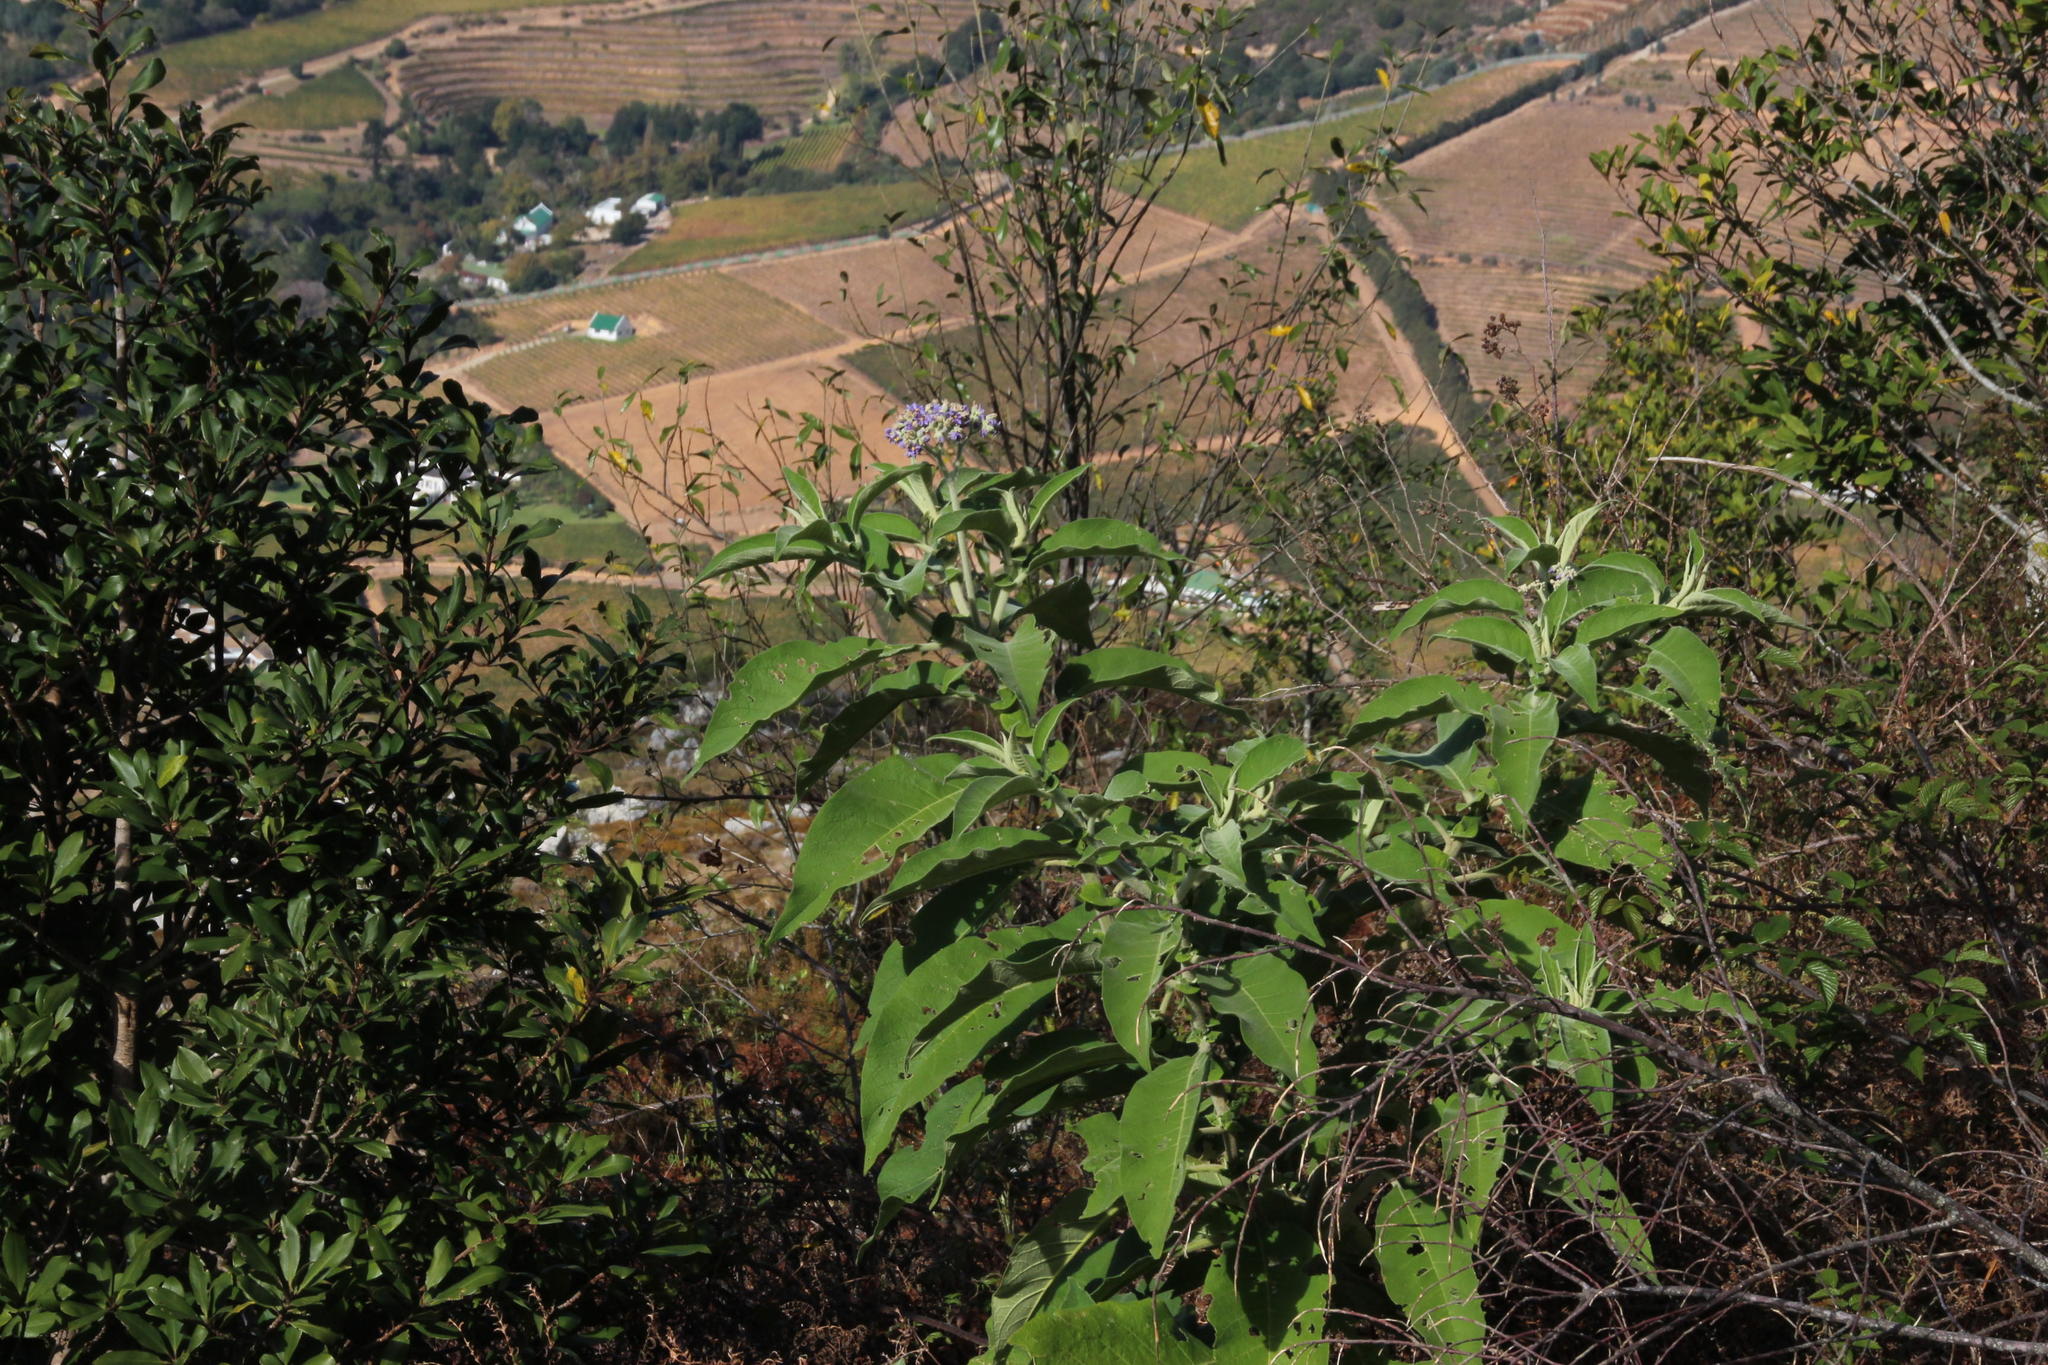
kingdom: Plantae
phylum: Tracheophyta
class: Magnoliopsida
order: Solanales
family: Solanaceae
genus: Solanum
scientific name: Solanum mauritianum
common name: Earleaf nightshade
